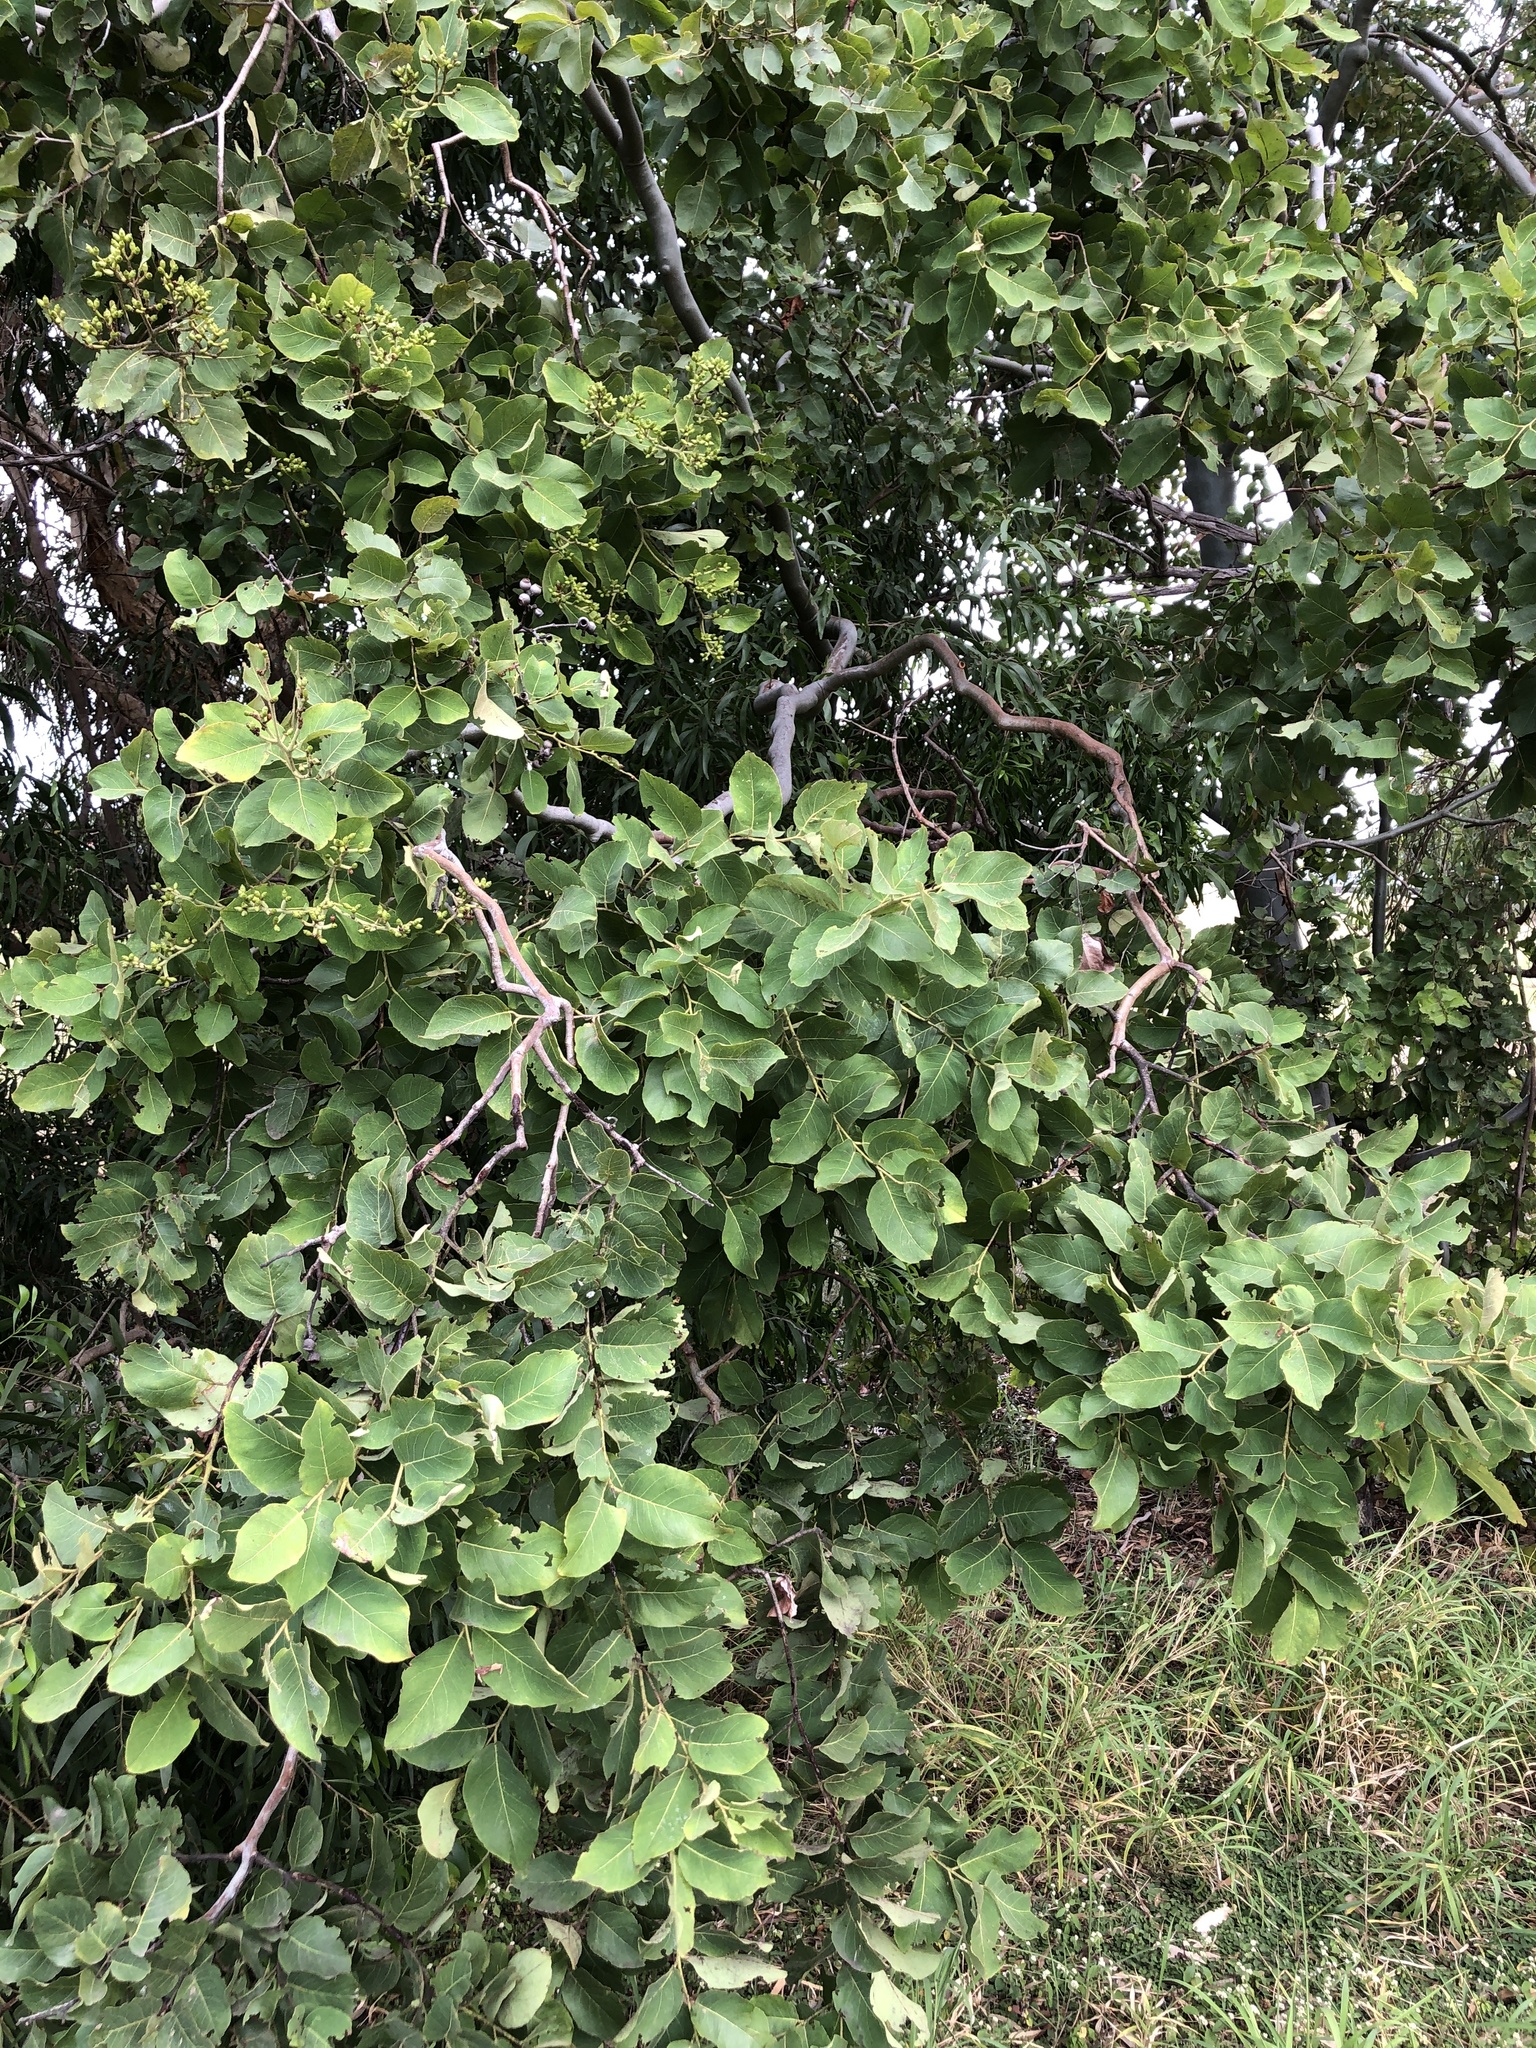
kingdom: Plantae
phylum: Tracheophyta
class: Magnoliopsida
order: Myrtales
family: Myrtaceae
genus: Corymbia
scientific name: Corymbia torelliana
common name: Cadaghi
